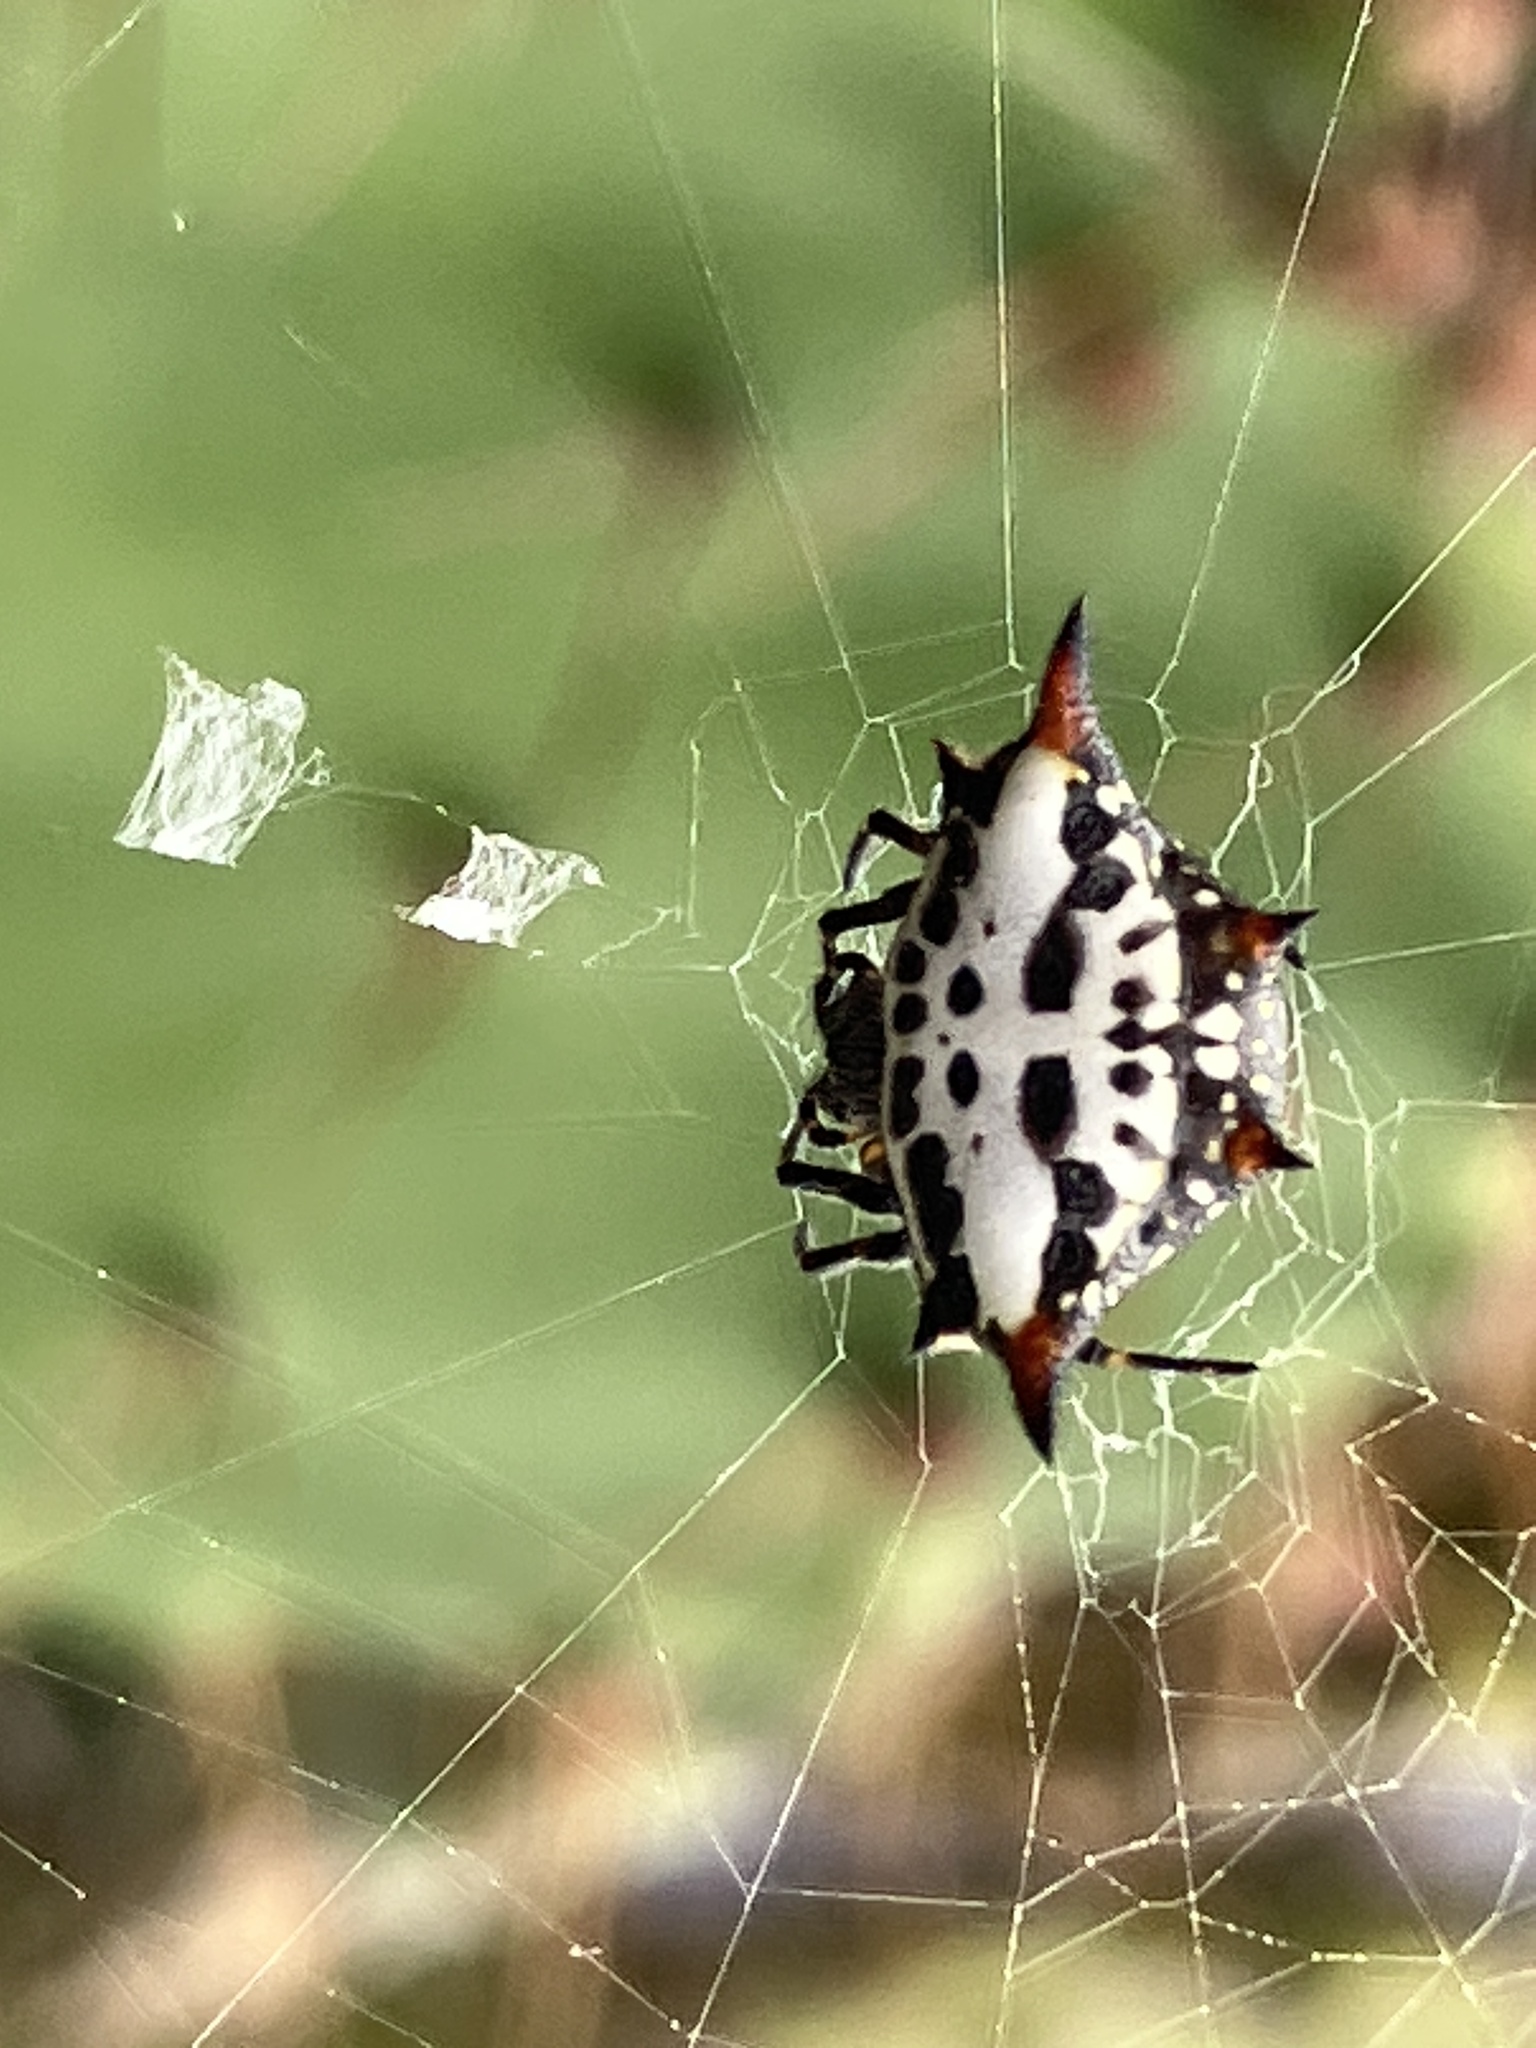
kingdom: Animalia
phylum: Arthropoda
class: Arachnida
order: Araneae
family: Araneidae
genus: Gasteracantha
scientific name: Gasteracantha sanguinolenta
